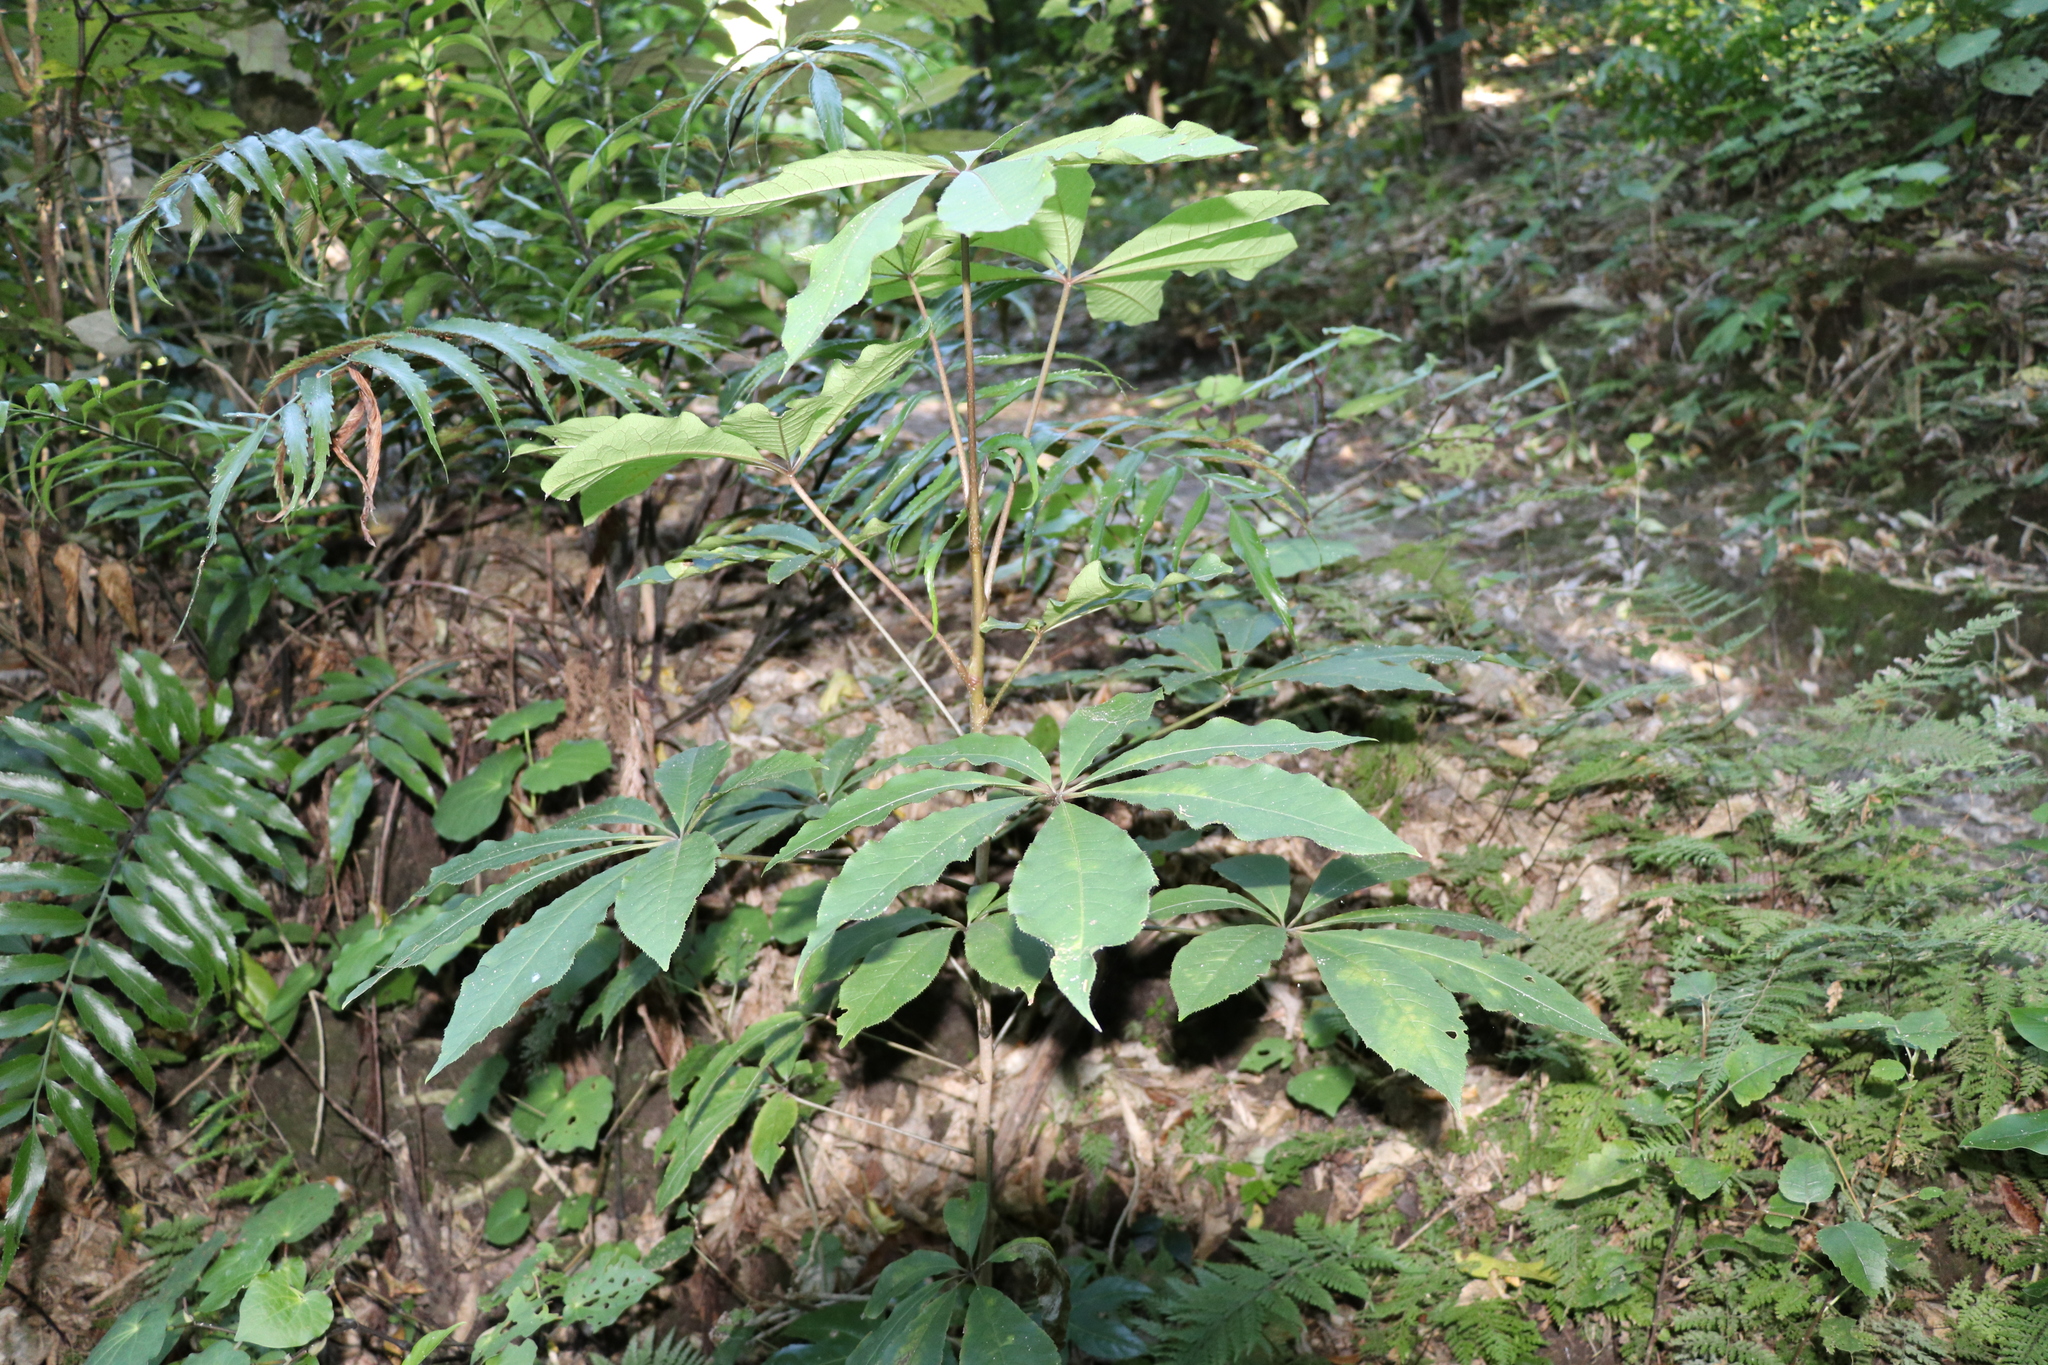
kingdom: Plantae
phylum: Tracheophyta
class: Magnoliopsida
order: Apiales
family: Araliaceae
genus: Schefflera
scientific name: Schefflera digitata
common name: Pate
